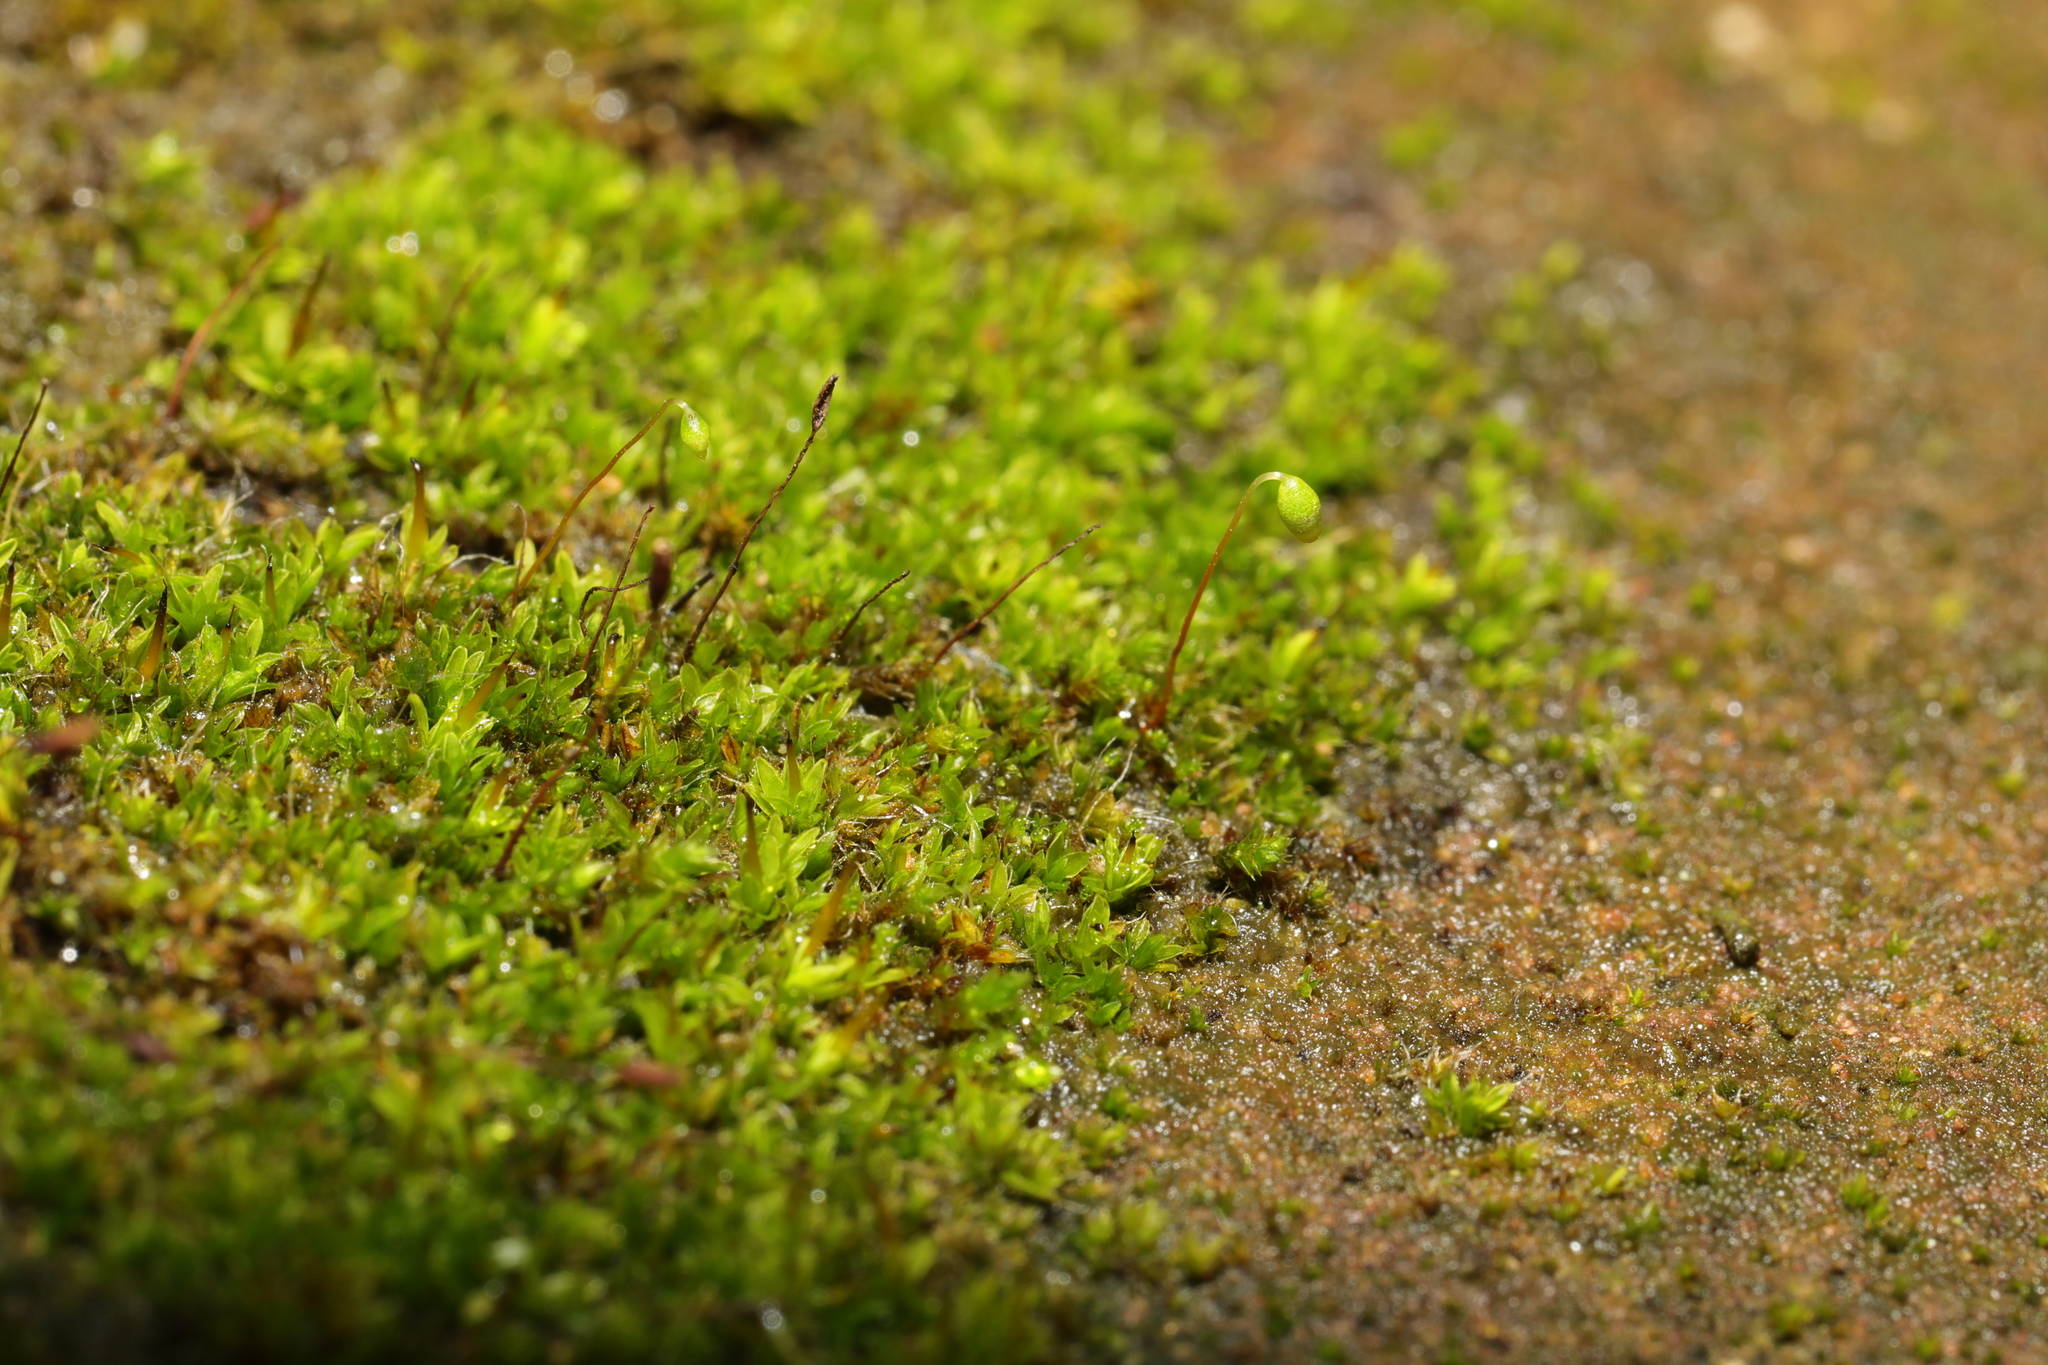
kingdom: Plantae
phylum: Bryophyta
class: Bryopsida
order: Pottiales
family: Pottiaceae
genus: Tortula
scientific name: Tortula muralis
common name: Wall screw-moss
